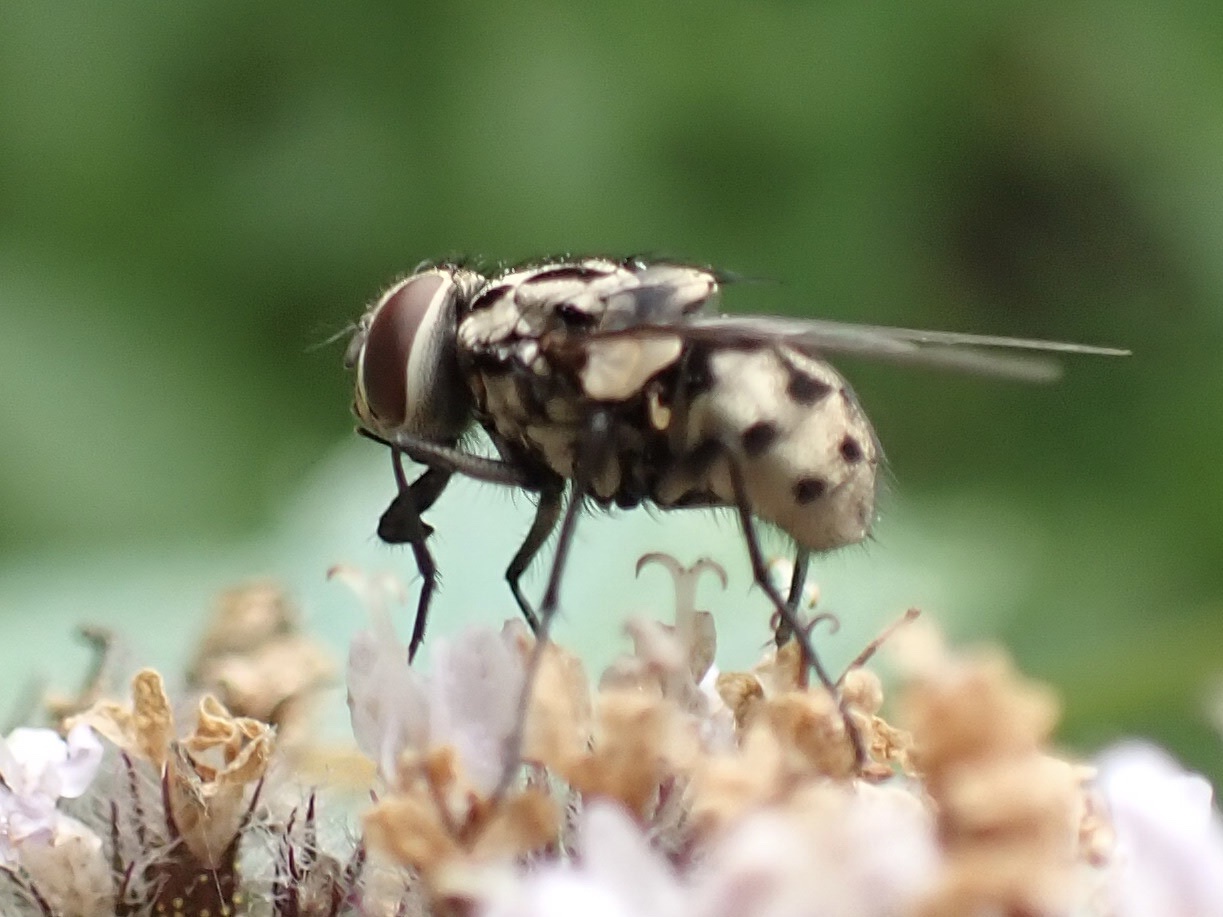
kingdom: Animalia
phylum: Arthropoda
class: Insecta
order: Diptera
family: Muscidae
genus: Graphomya
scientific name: Graphomya maculata
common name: Muscid fly
